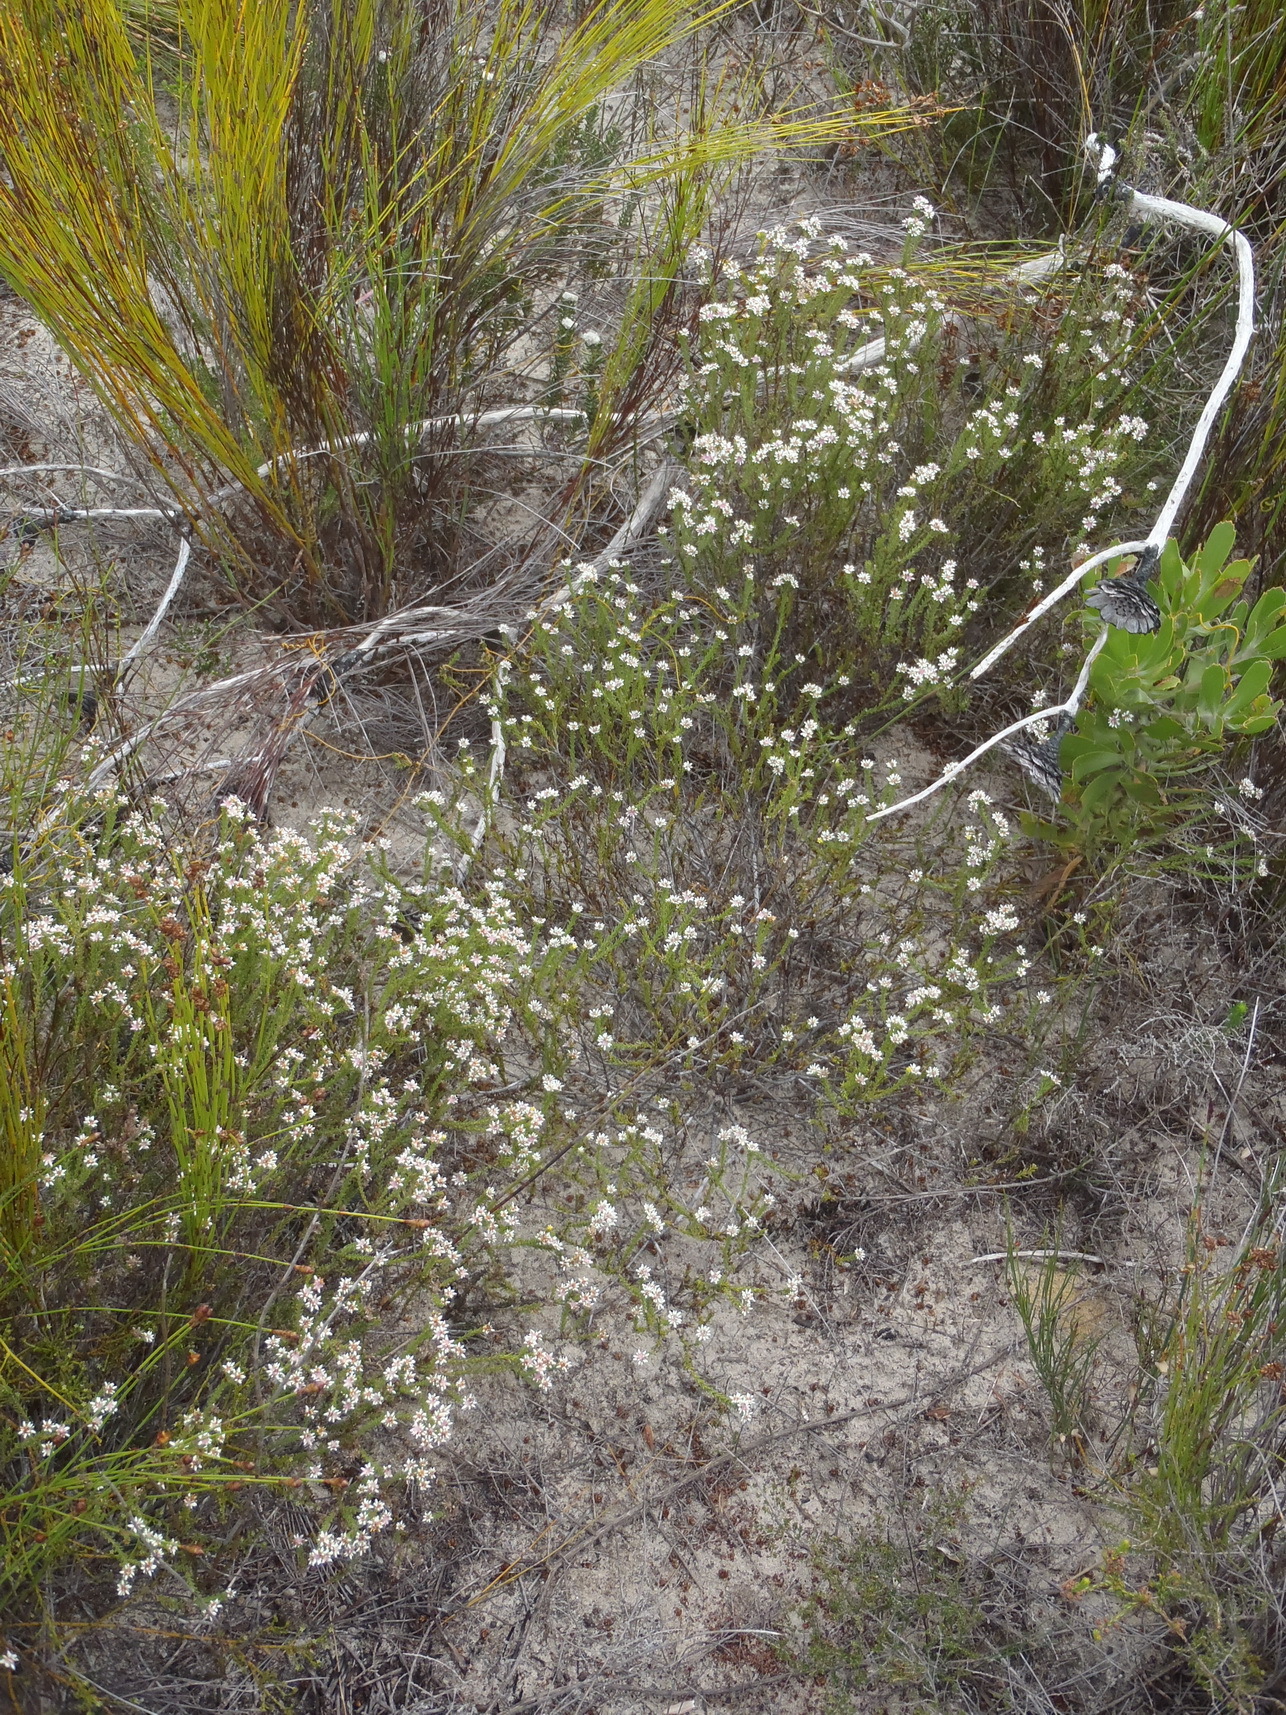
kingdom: Plantae
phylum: Tracheophyta
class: Magnoliopsida
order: Bruniales
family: Bruniaceae
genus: Staavia
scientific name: Staavia radiata
